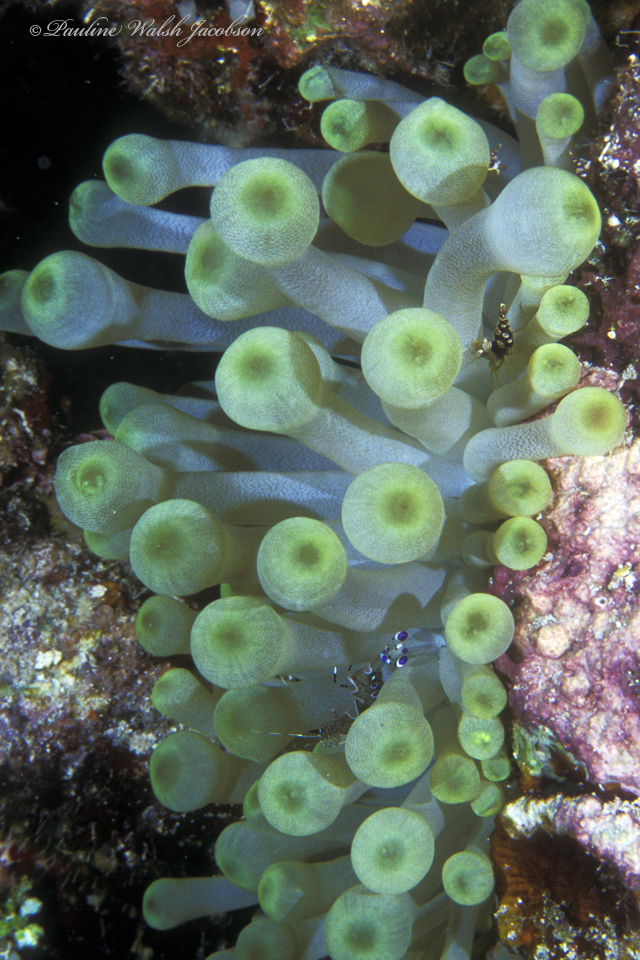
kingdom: Animalia
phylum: Arthropoda
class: Malacostraca
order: Decapoda
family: Palaemonidae
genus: Periclimenes
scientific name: Periclimenes yucatanicus
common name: Spotted cleaning shrimp
